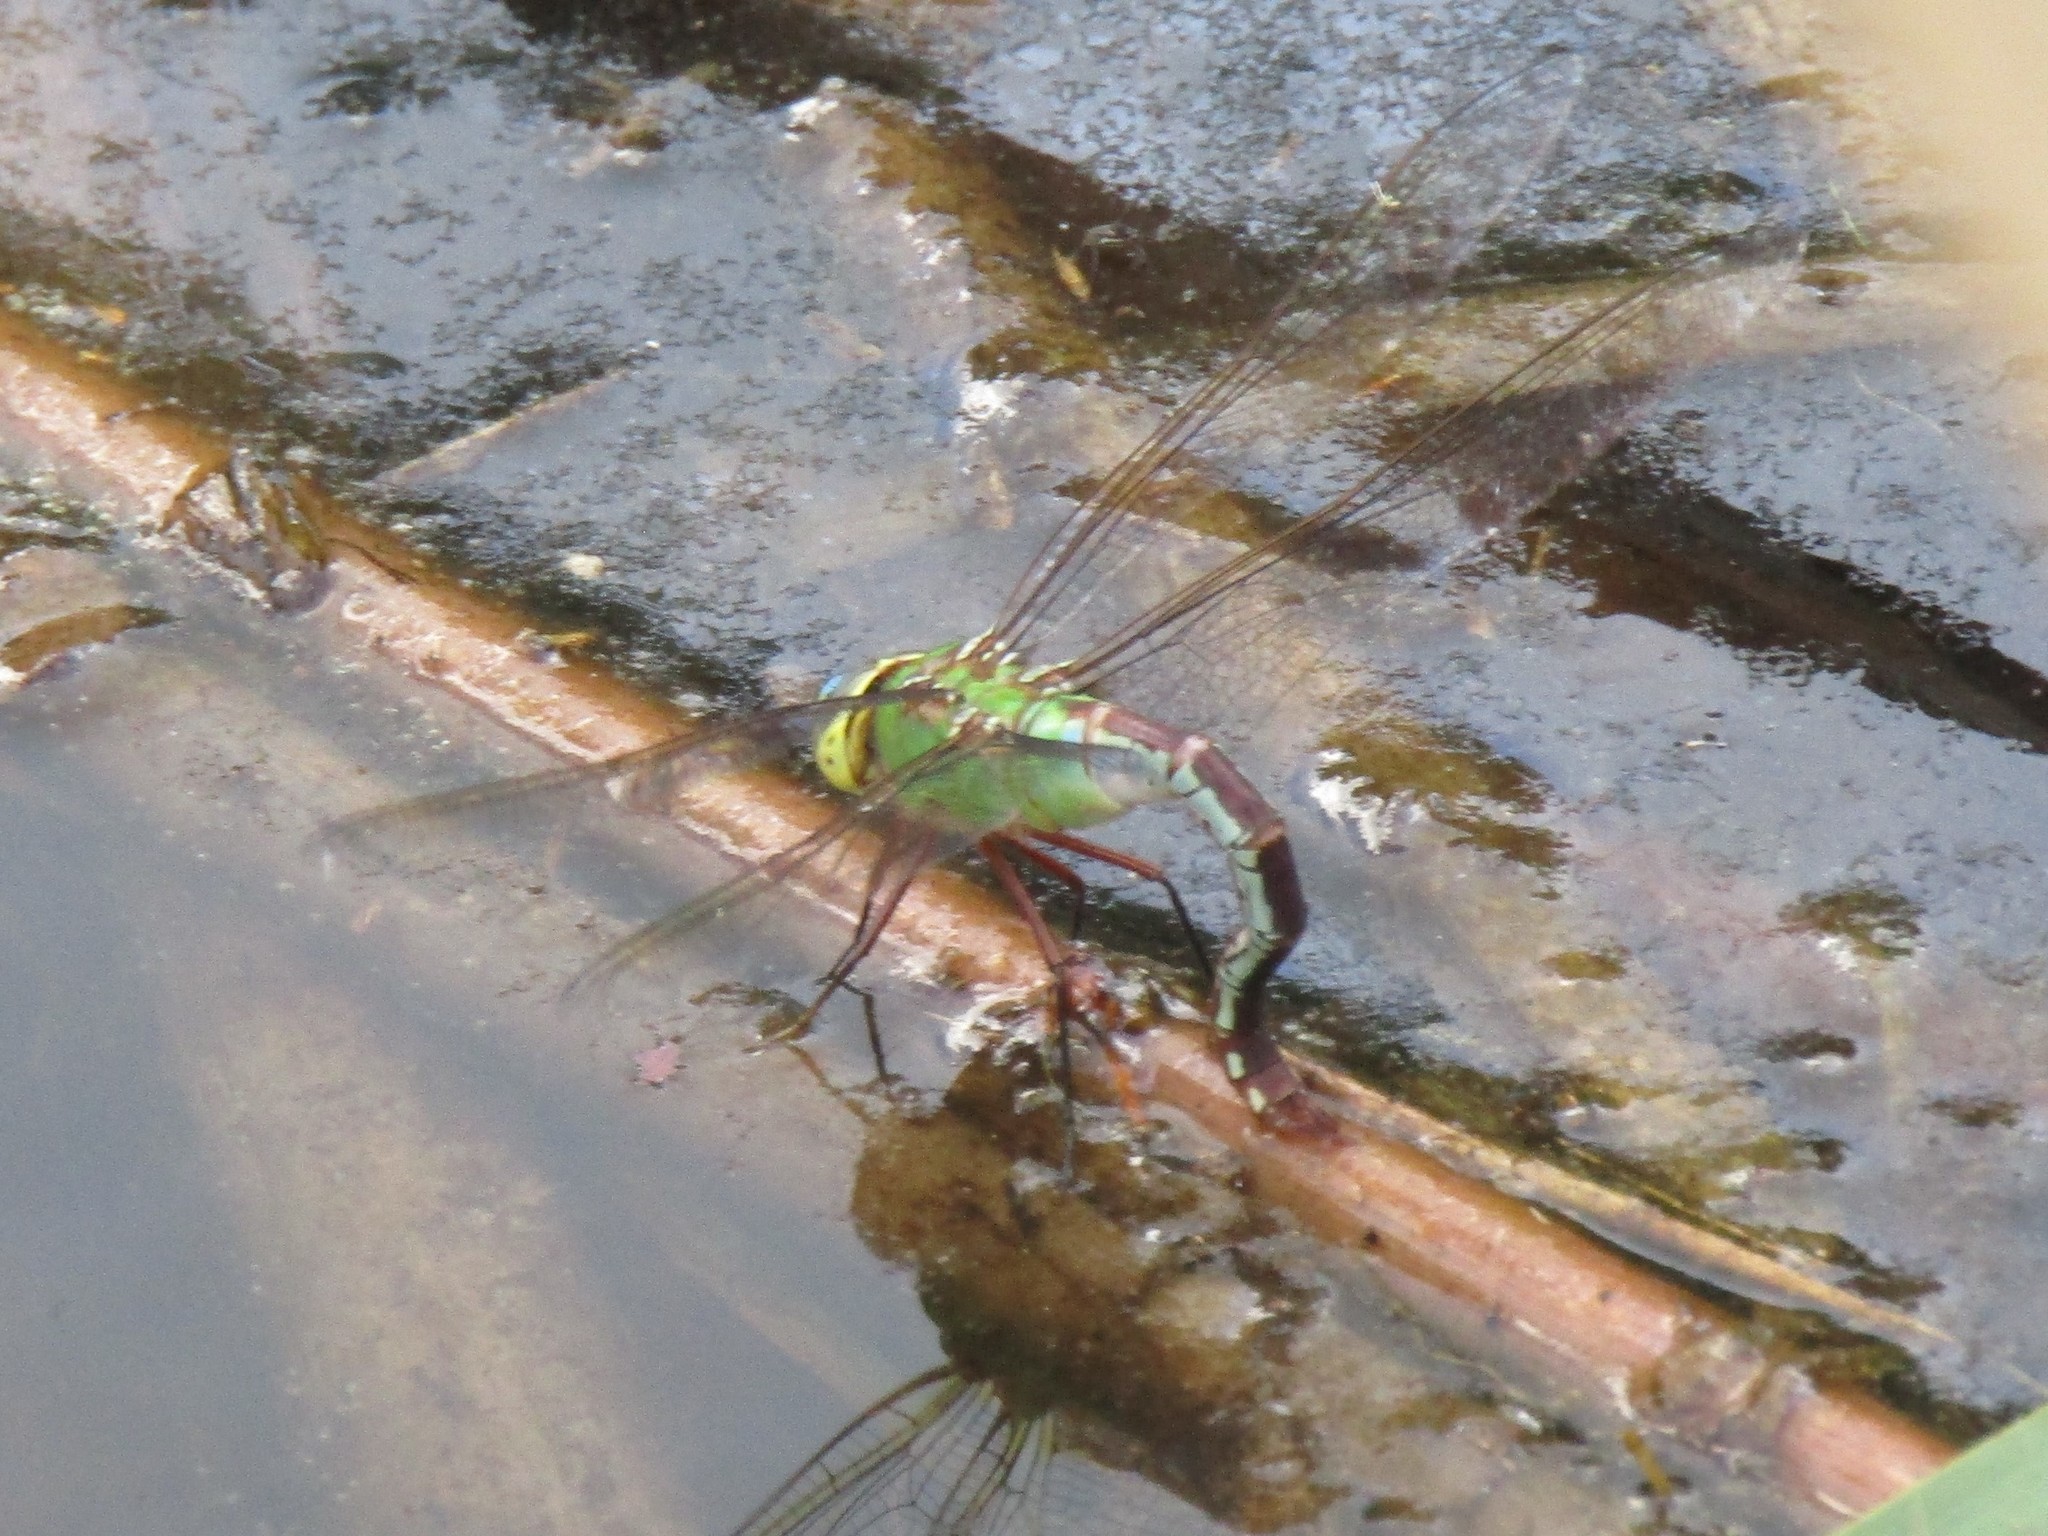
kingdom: Animalia
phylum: Arthropoda
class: Insecta
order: Odonata
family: Aeshnidae
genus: Anax
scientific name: Anax junius
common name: Common green darner
